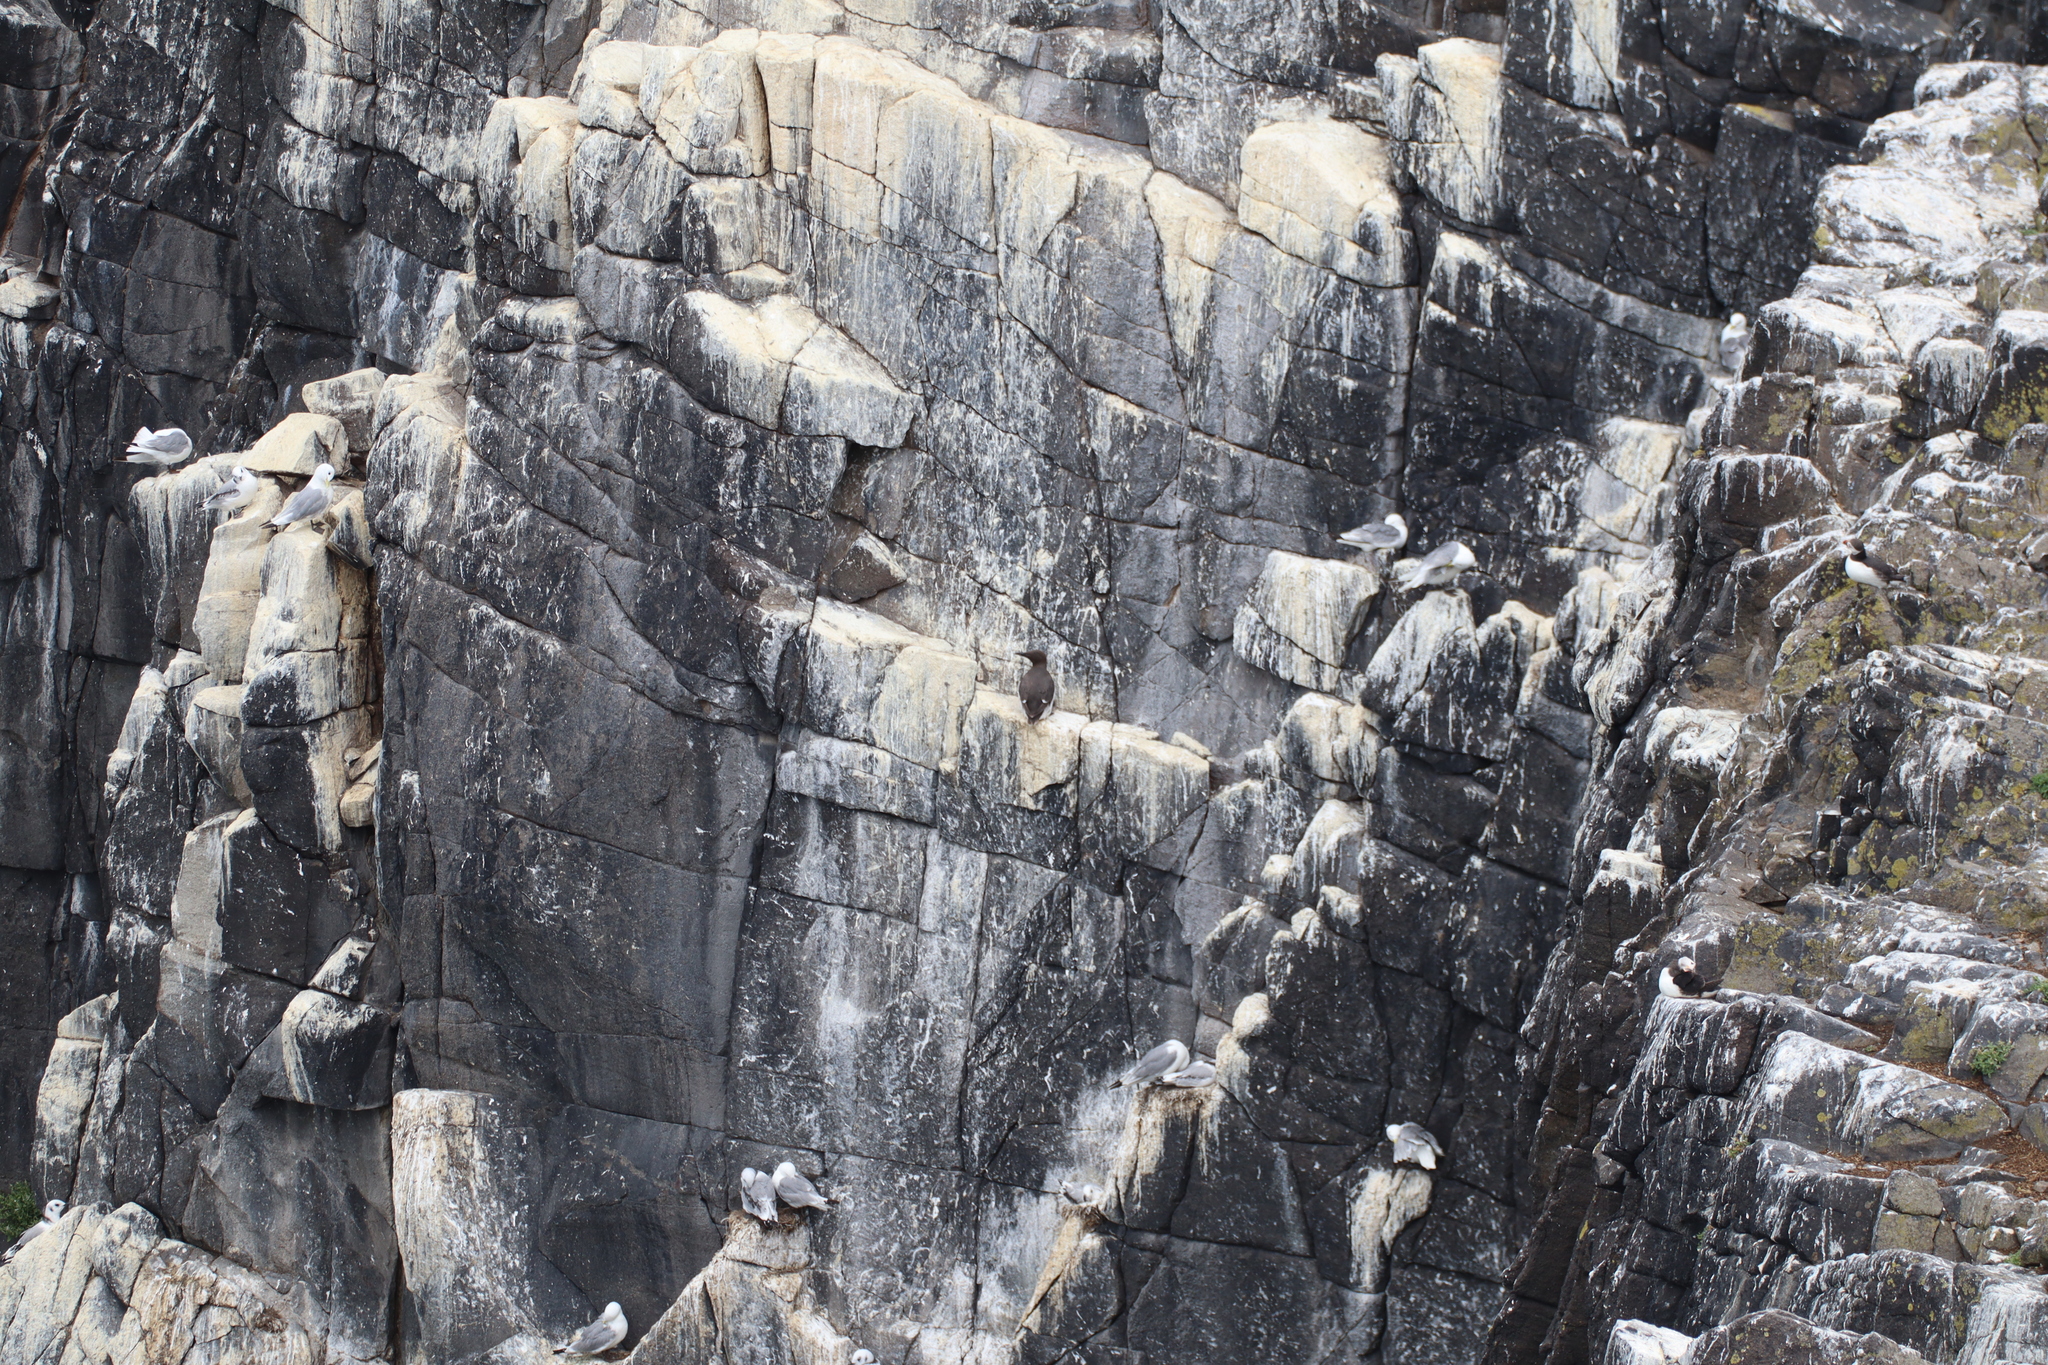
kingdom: Animalia
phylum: Chordata
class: Aves
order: Charadriiformes
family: Alcidae
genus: Uria
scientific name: Uria aalge
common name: Common murre
